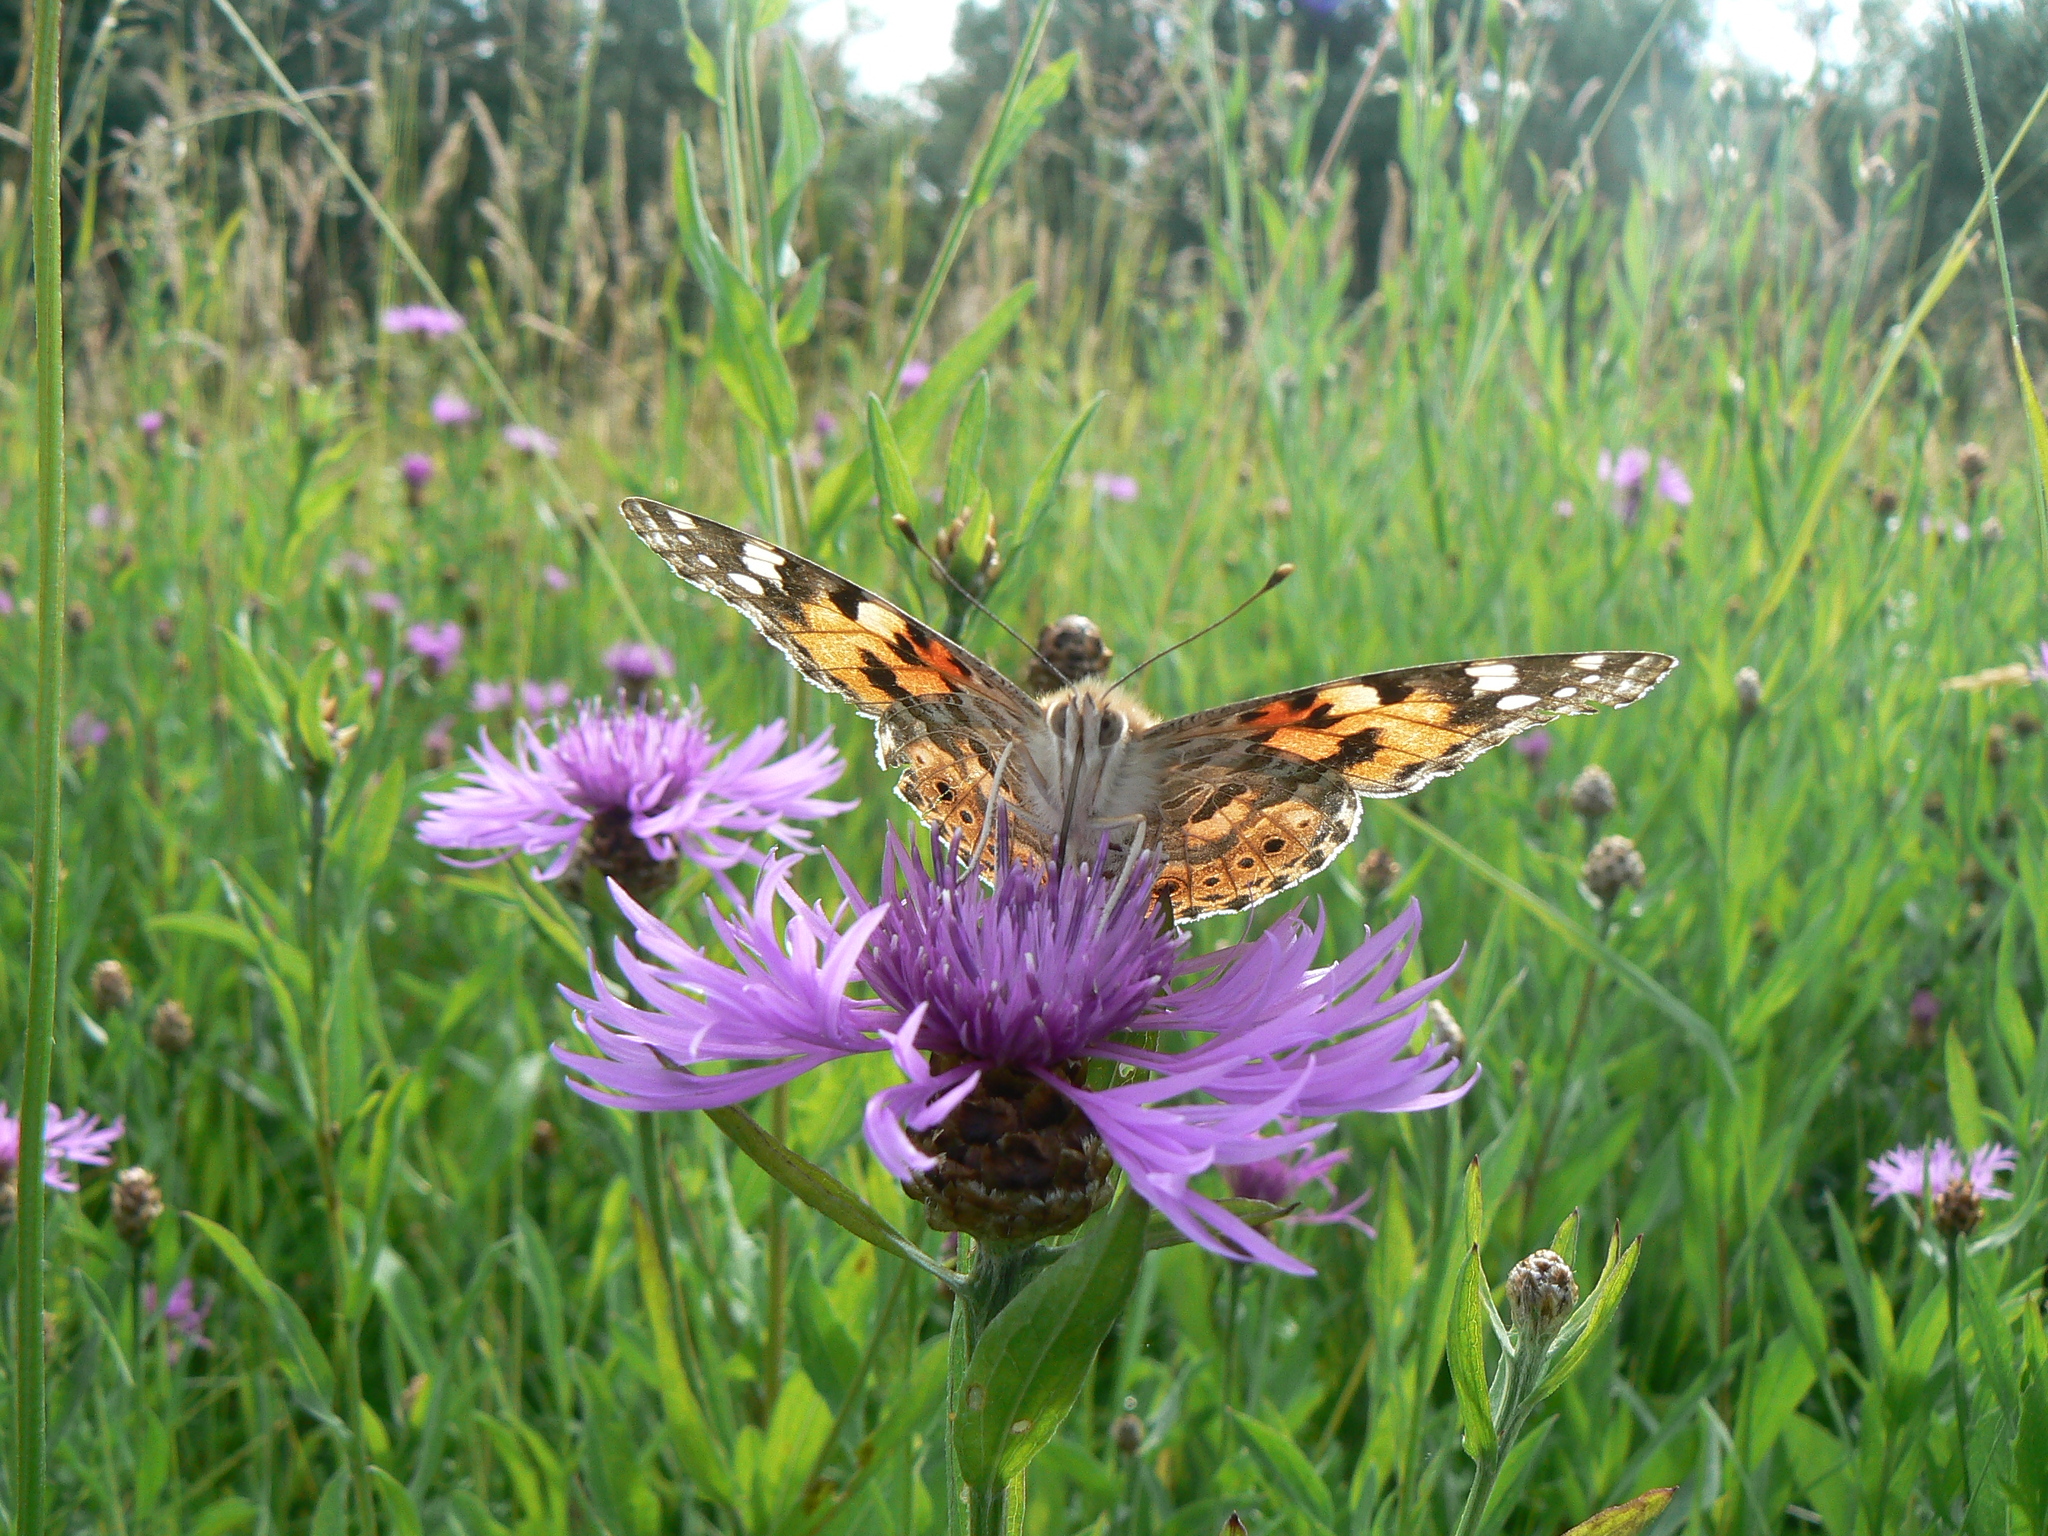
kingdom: Animalia
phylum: Arthropoda
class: Insecta
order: Lepidoptera
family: Nymphalidae
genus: Vanessa
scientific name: Vanessa cardui
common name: Painted lady
